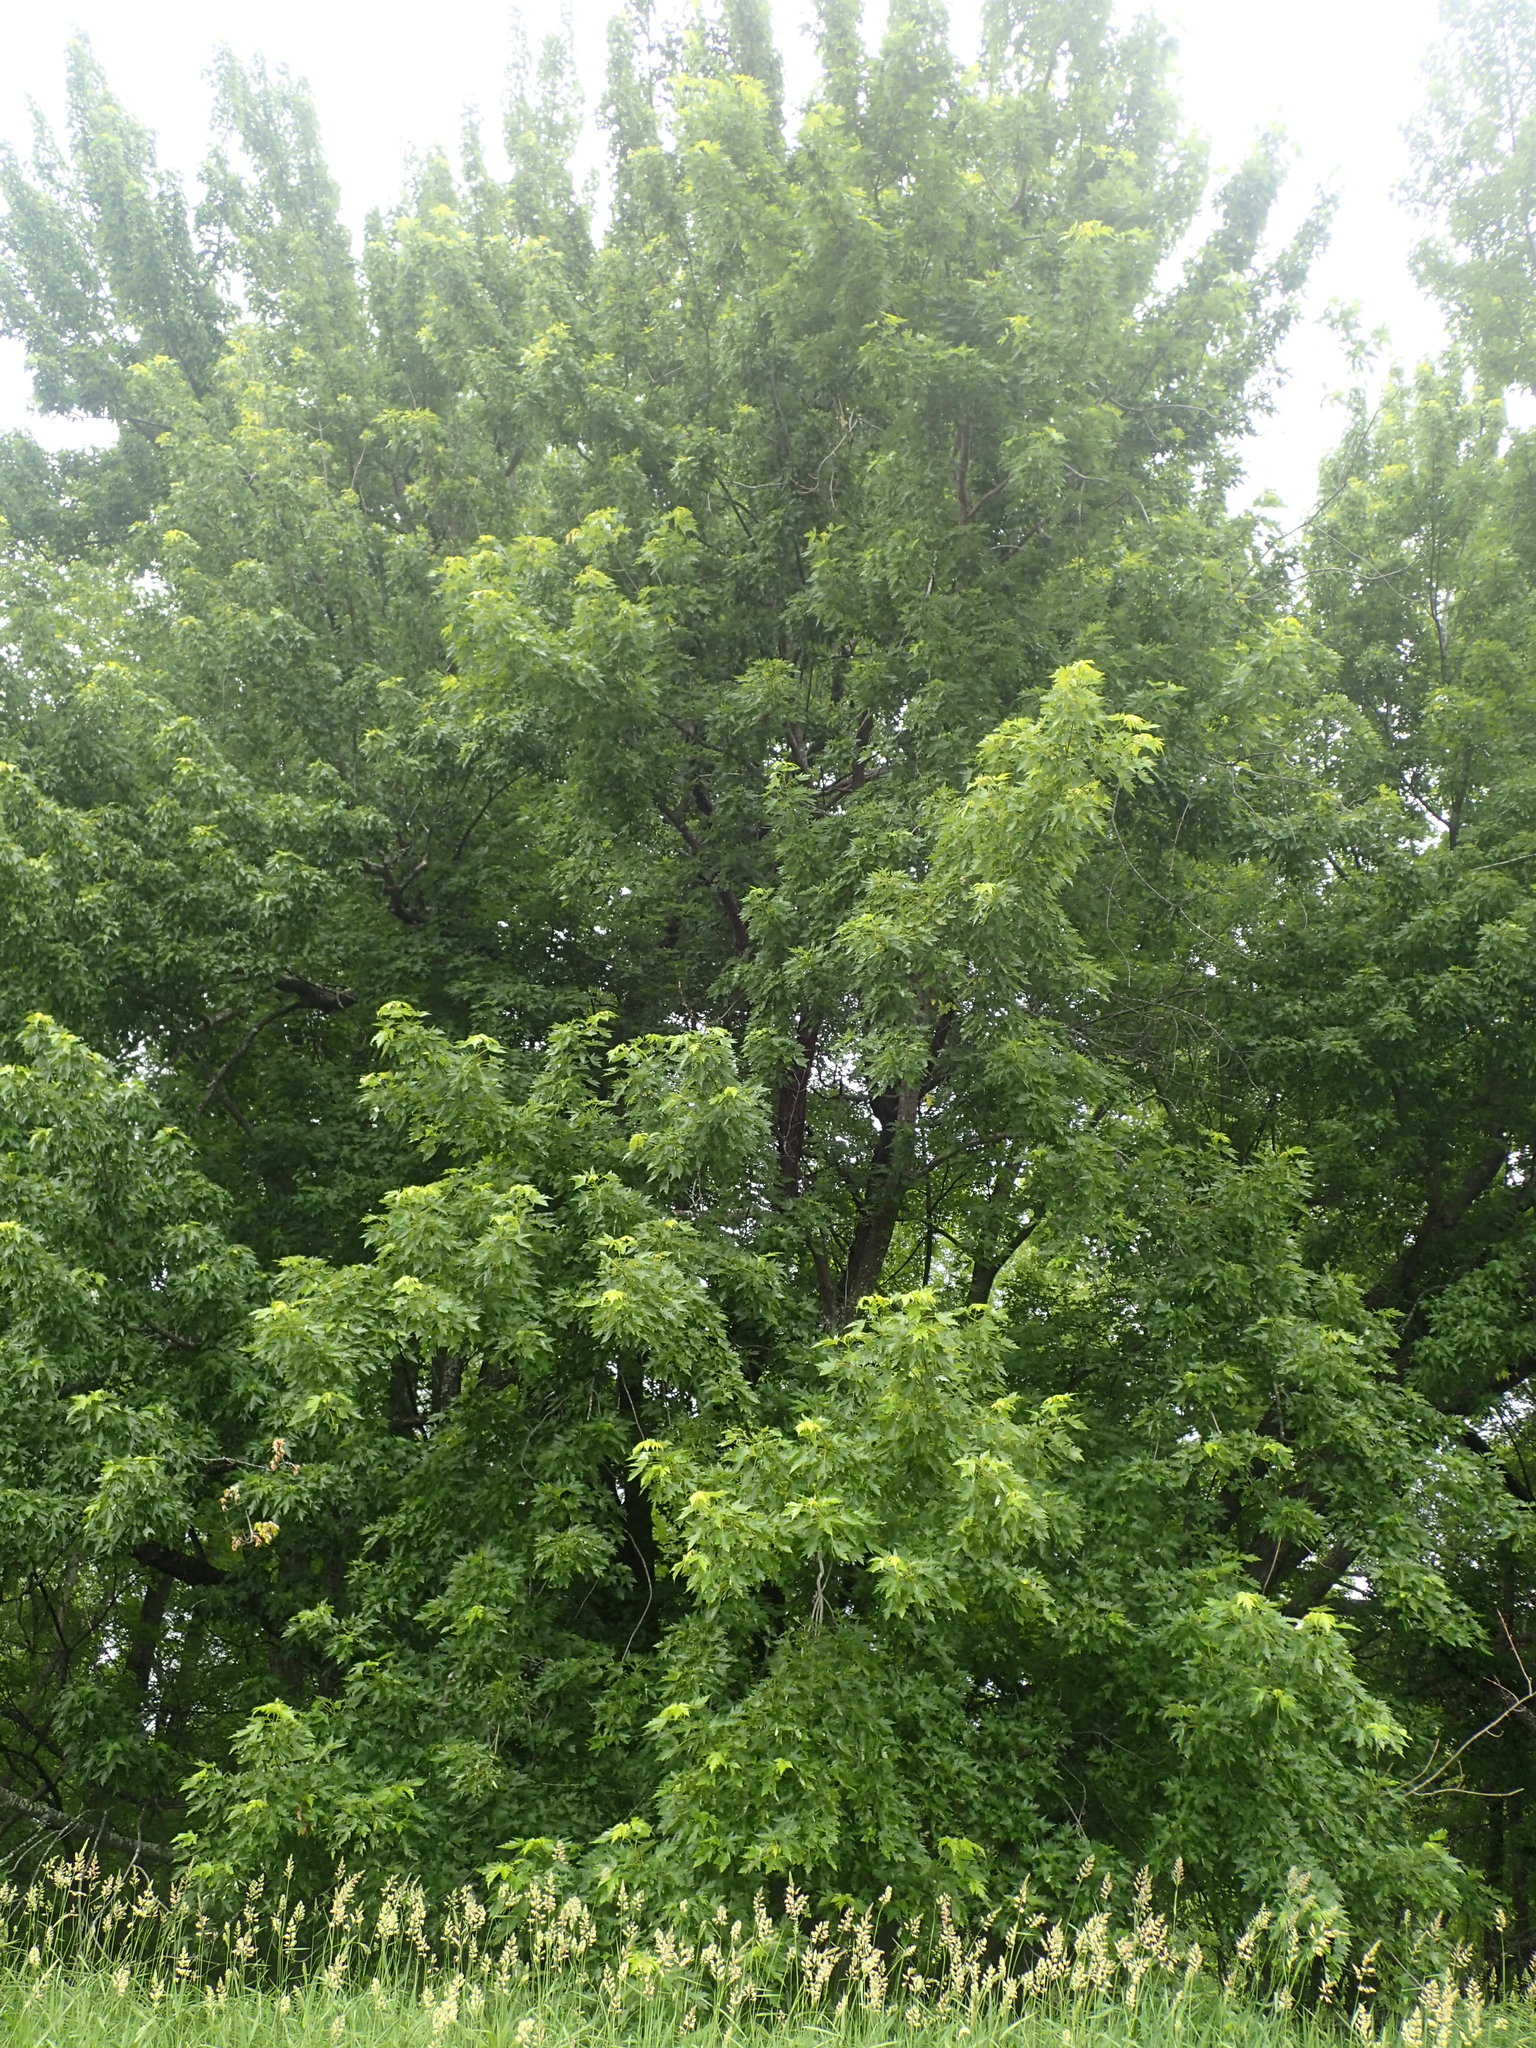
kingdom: Plantae
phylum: Tracheophyta
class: Magnoliopsida
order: Sapindales
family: Sapindaceae
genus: Acer
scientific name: Acer saccharinum
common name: Silver maple
